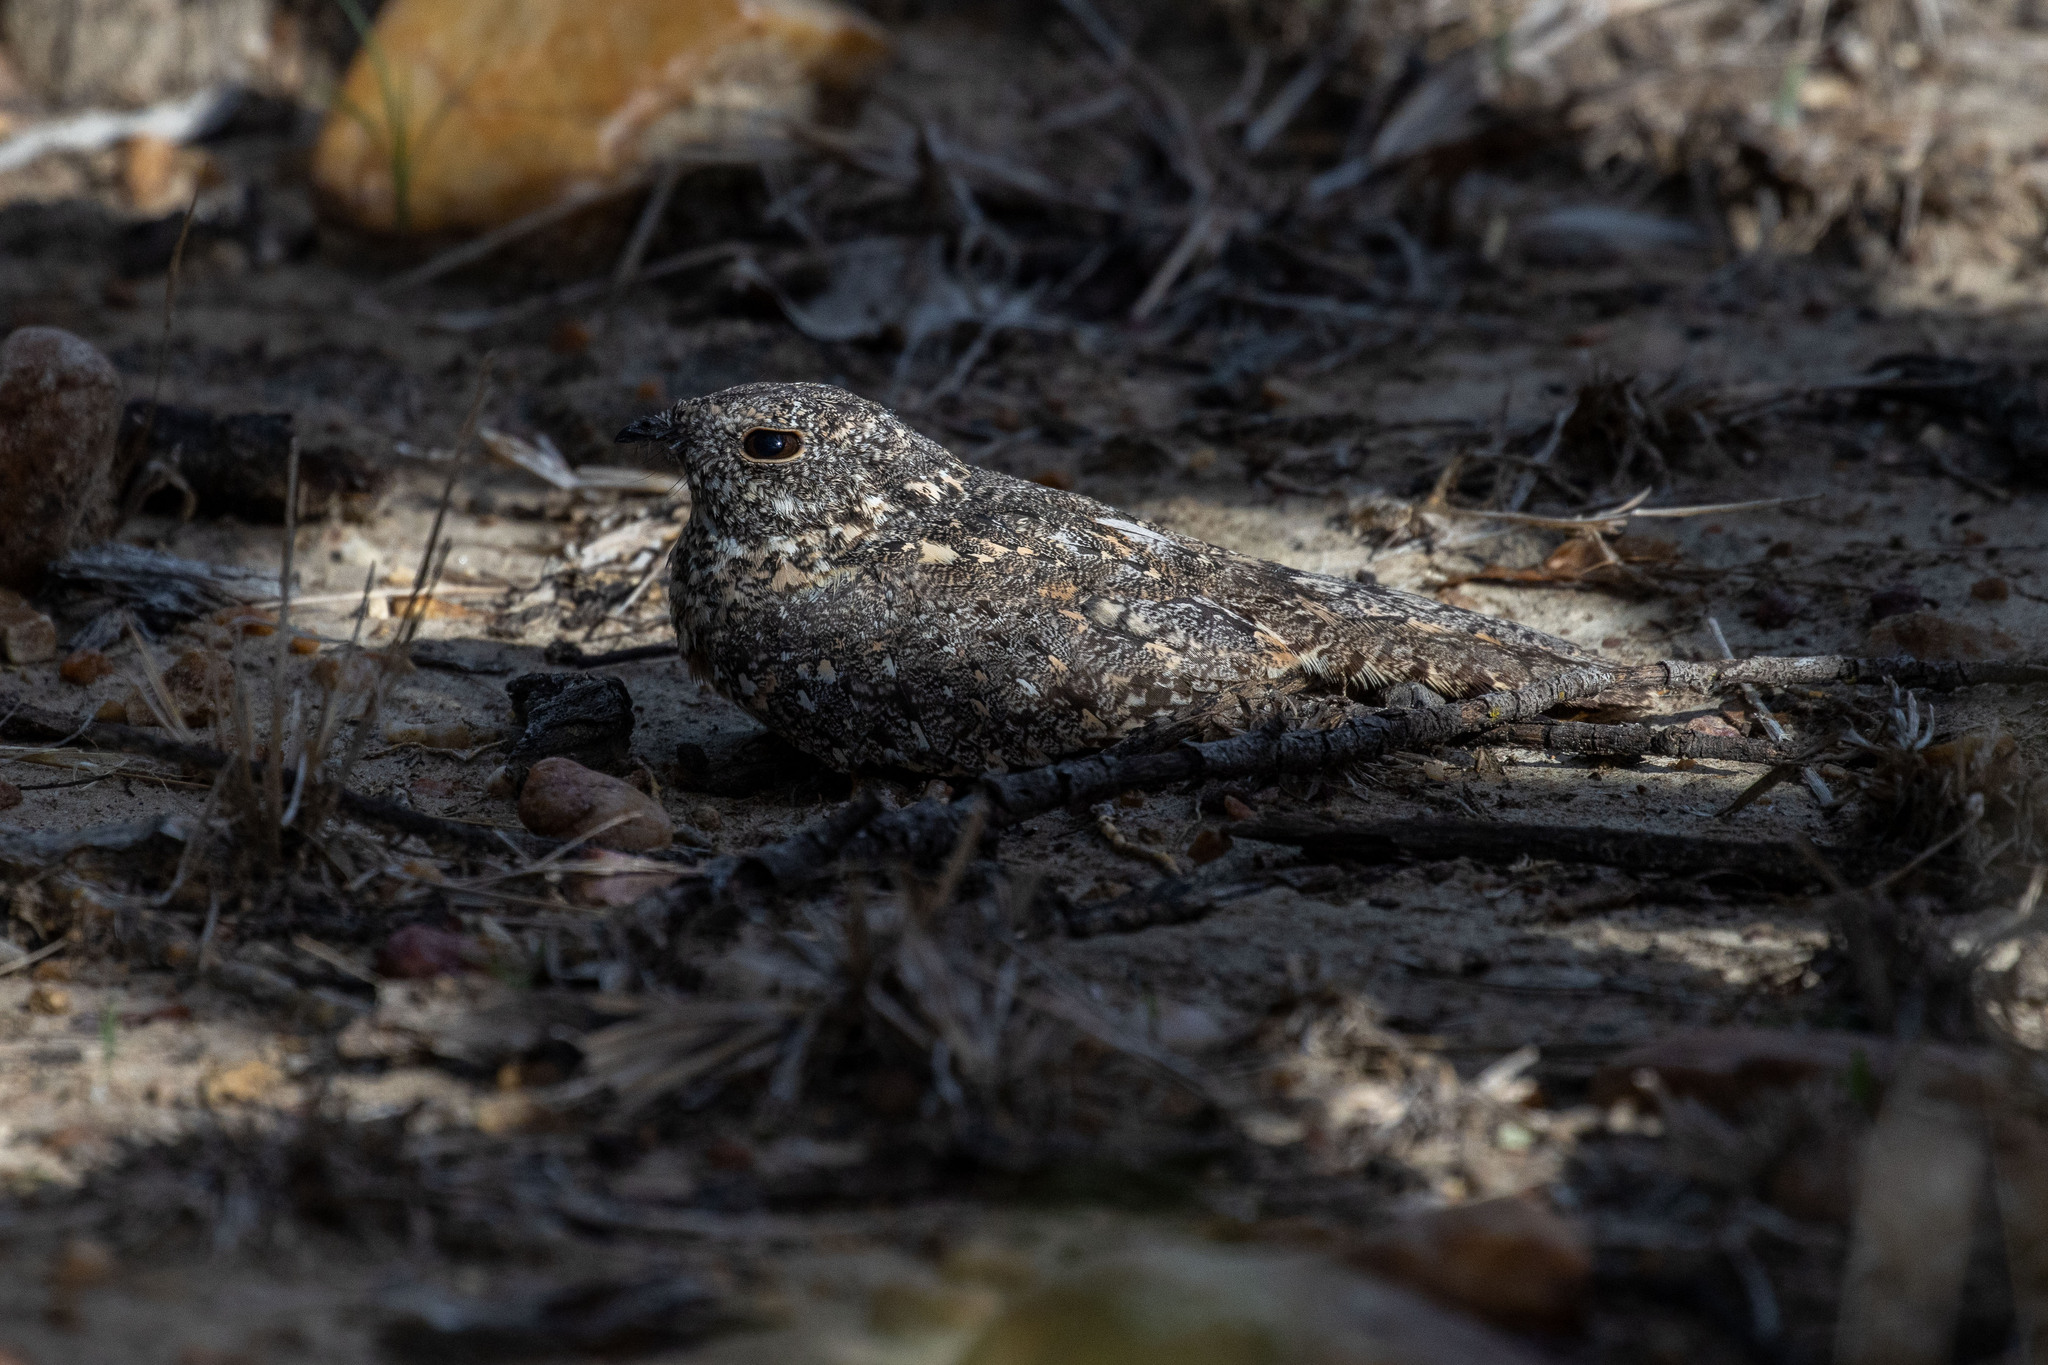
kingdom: Animalia
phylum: Chordata
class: Aves
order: Caprimulgiformes
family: Caprimulgidae
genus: Nyctipolus
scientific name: Nyctipolus hirundinaceus
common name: Pygmy nightjar
